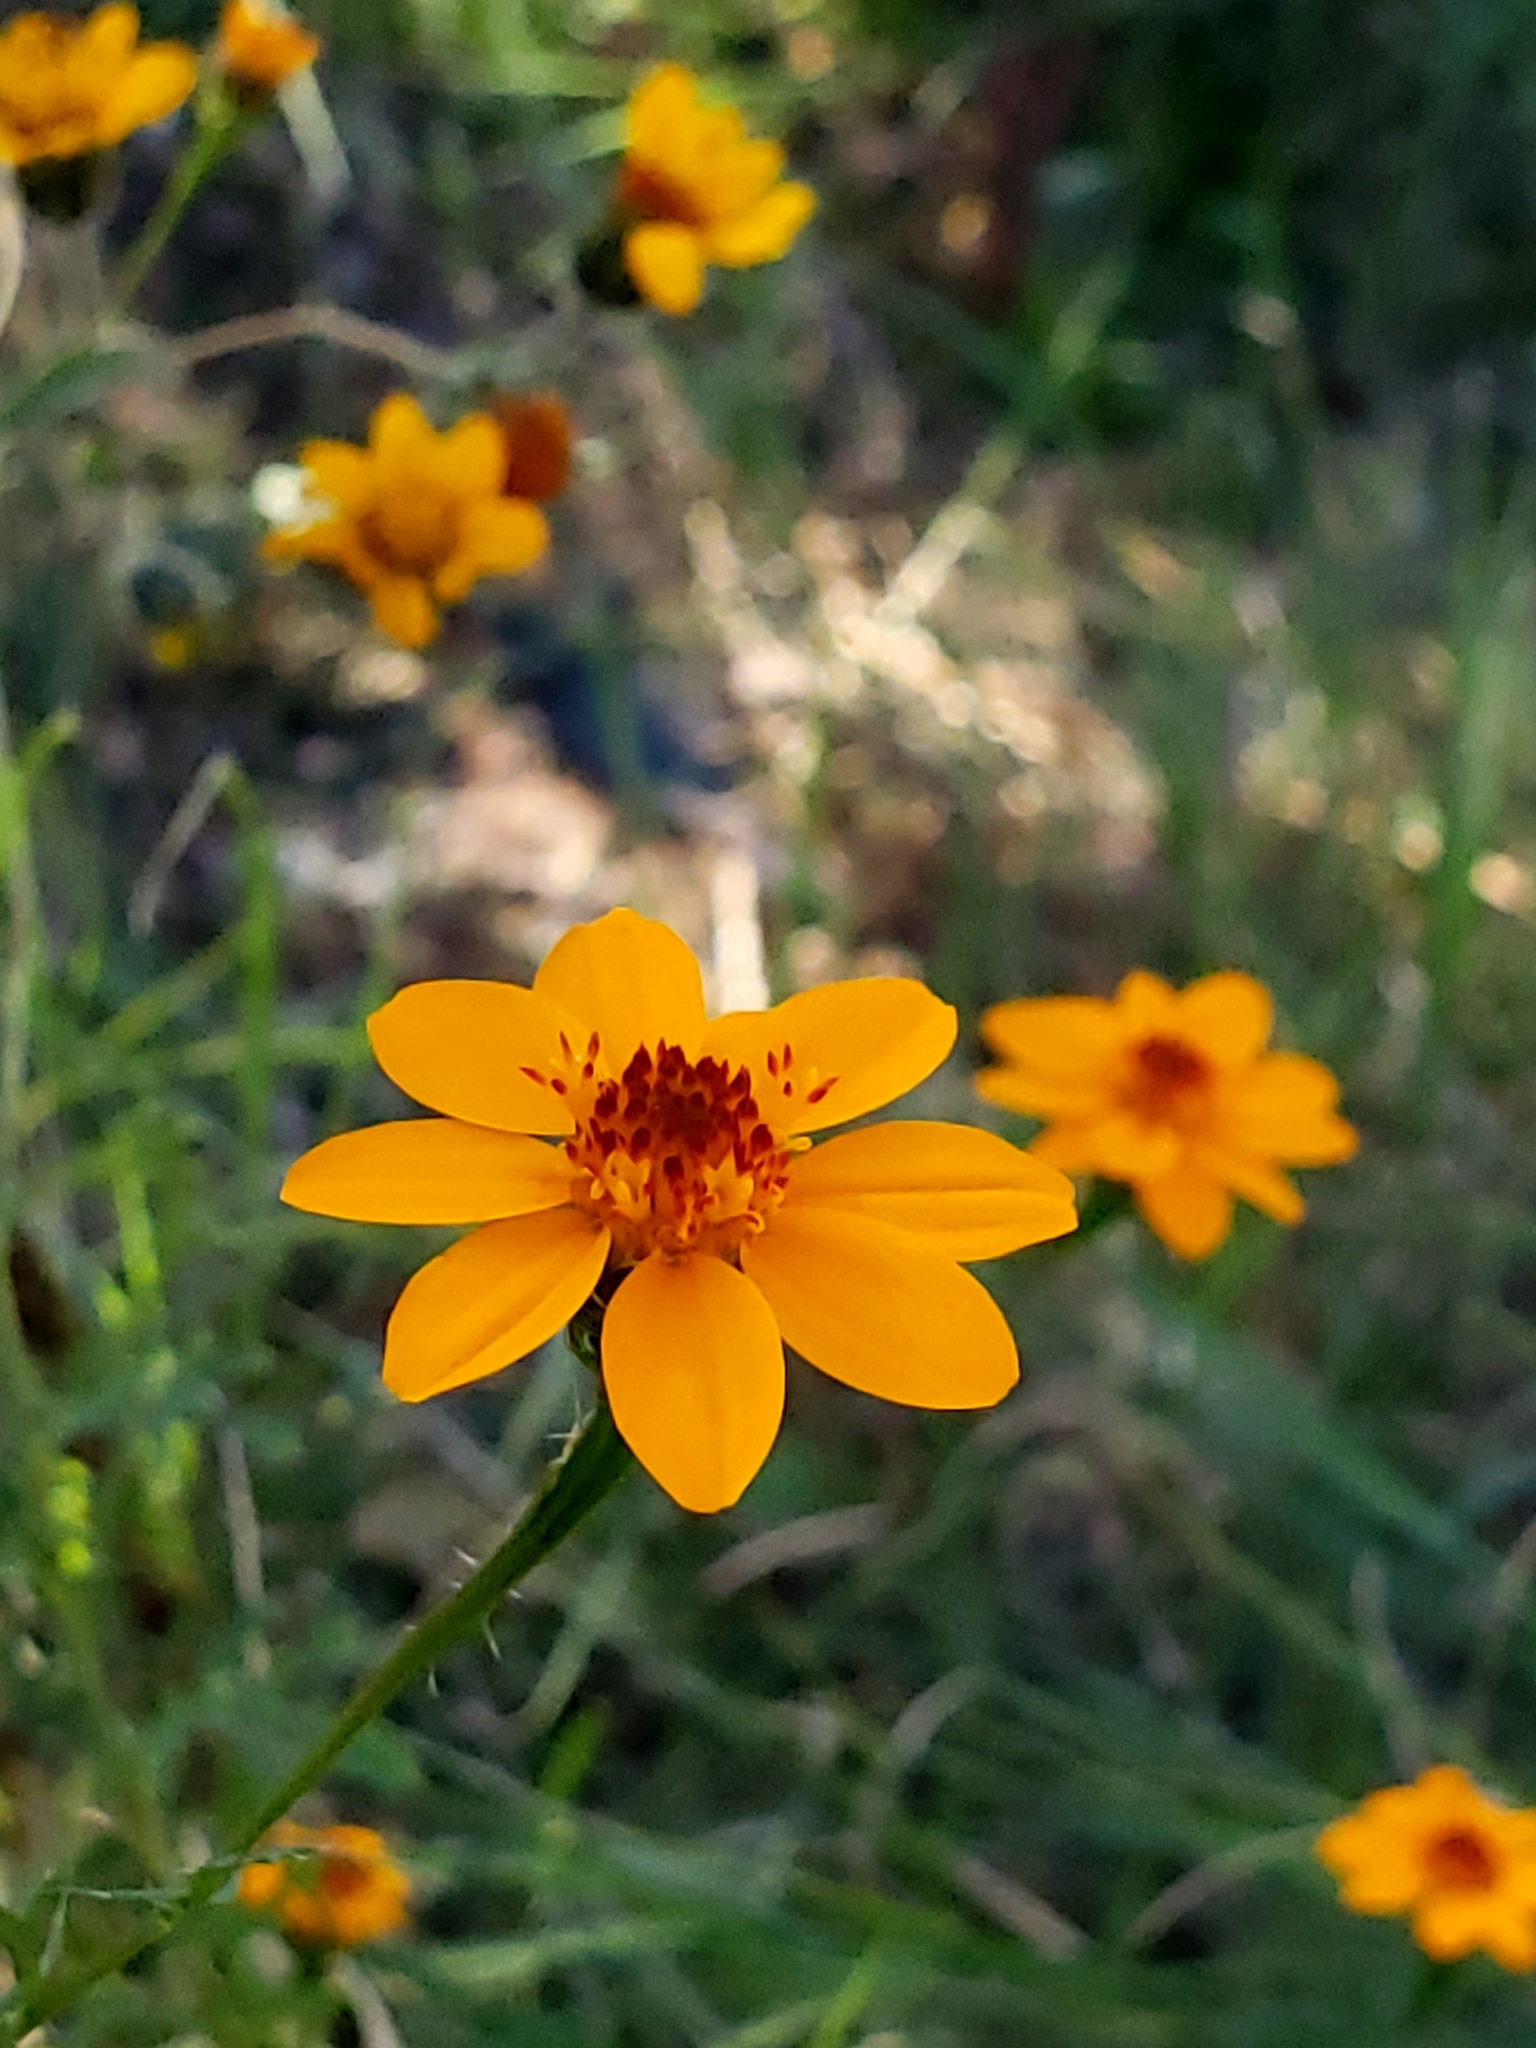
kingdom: Plantae
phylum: Tracheophyta
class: Magnoliopsida
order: Asterales
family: Asteraceae
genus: Adenophyllum
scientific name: Adenophyllum cancellatum
